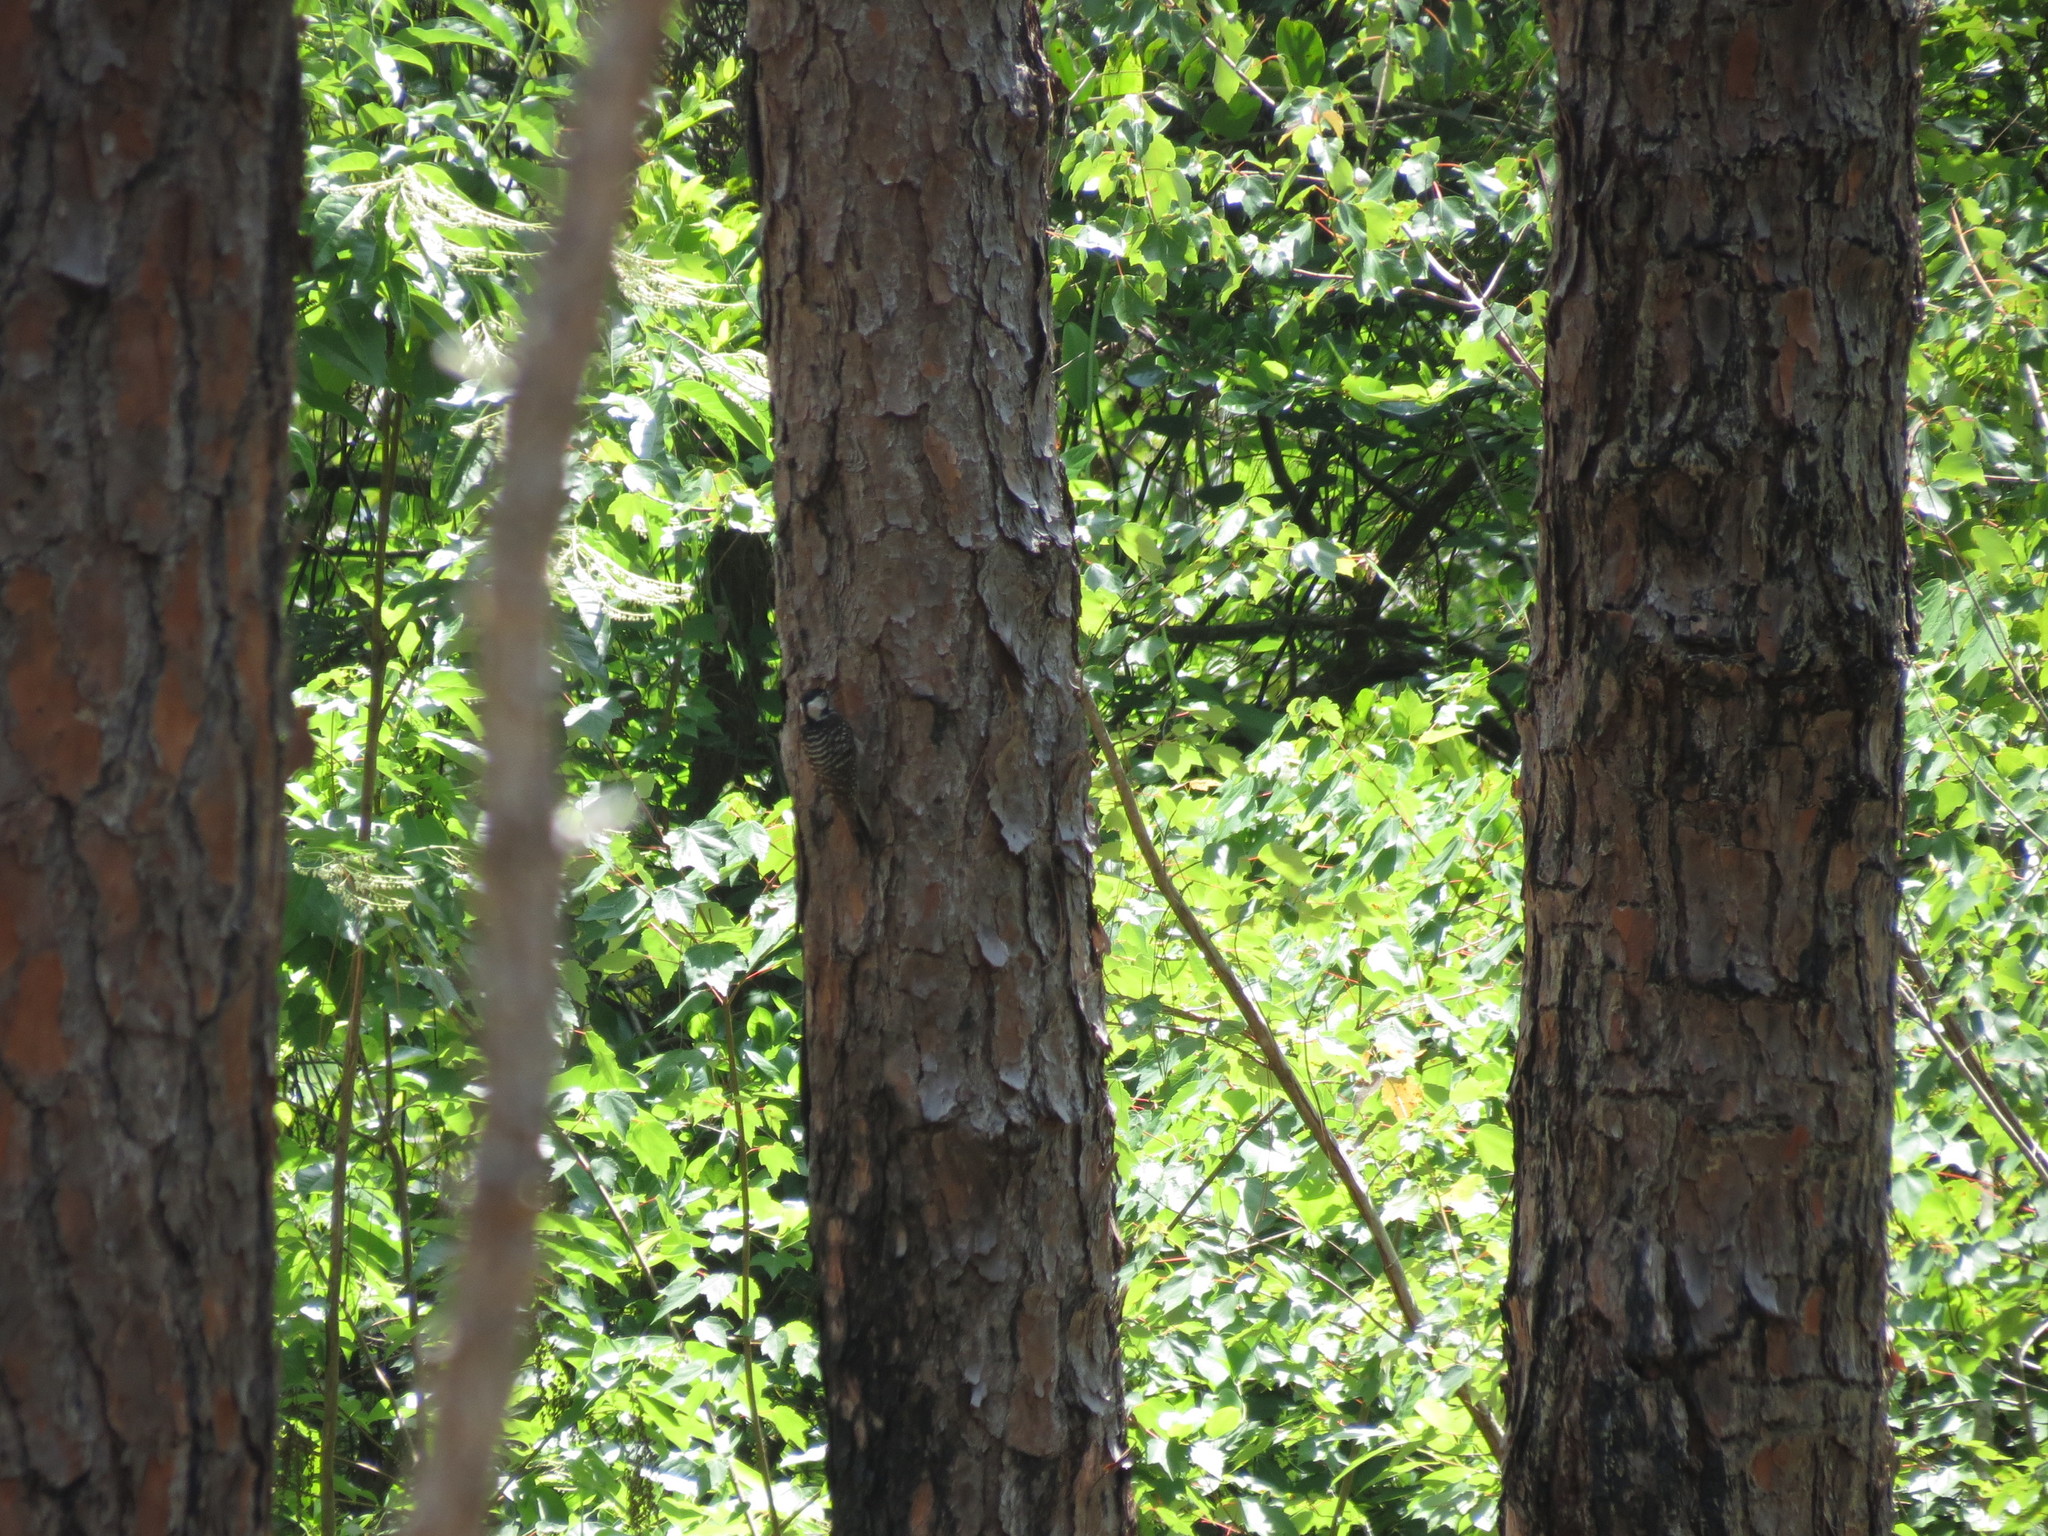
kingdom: Animalia
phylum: Chordata
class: Aves
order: Piciformes
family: Picidae
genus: Leuconotopicus
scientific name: Leuconotopicus borealis
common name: Red-cockaded woodpecker
